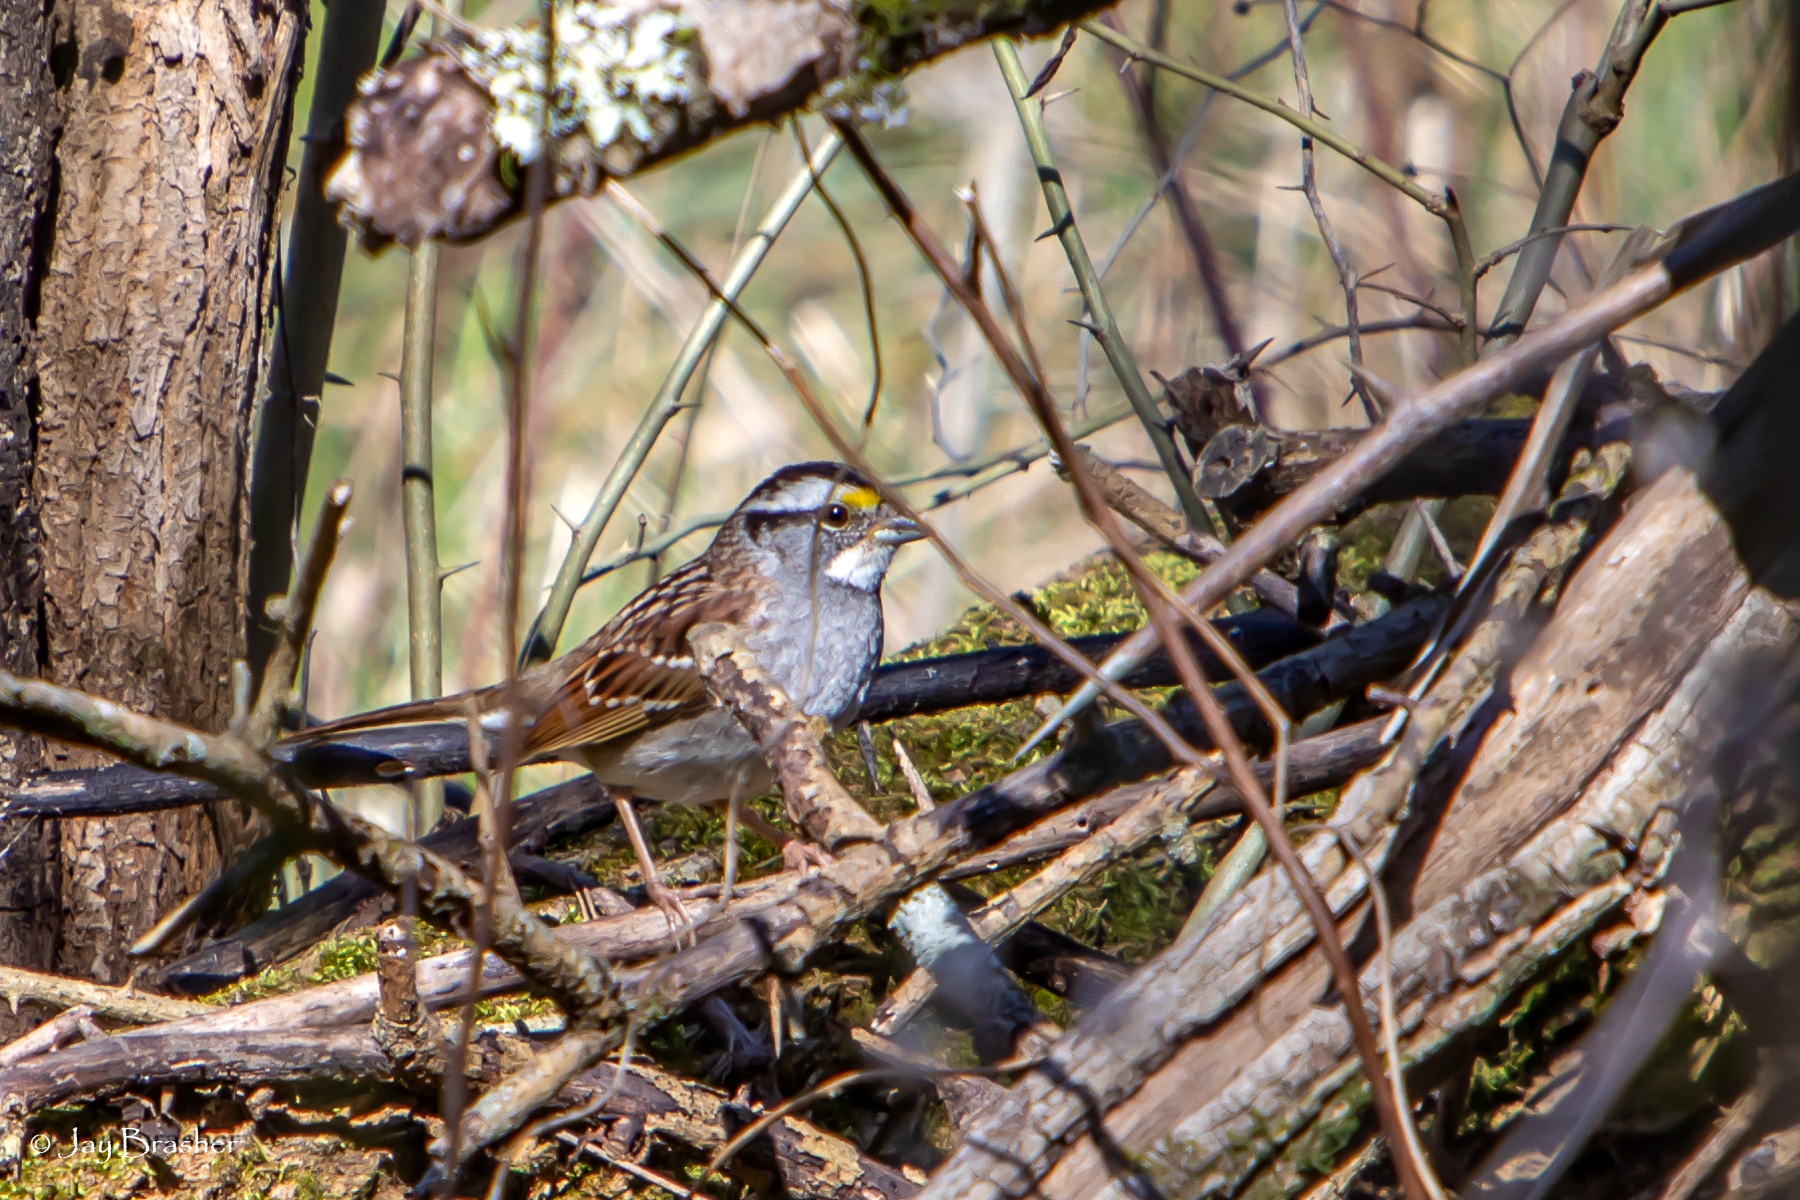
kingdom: Animalia
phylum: Chordata
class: Aves
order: Passeriformes
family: Passerellidae
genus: Zonotrichia
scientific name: Zonotrichia albicollis
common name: White-throated sparrow
